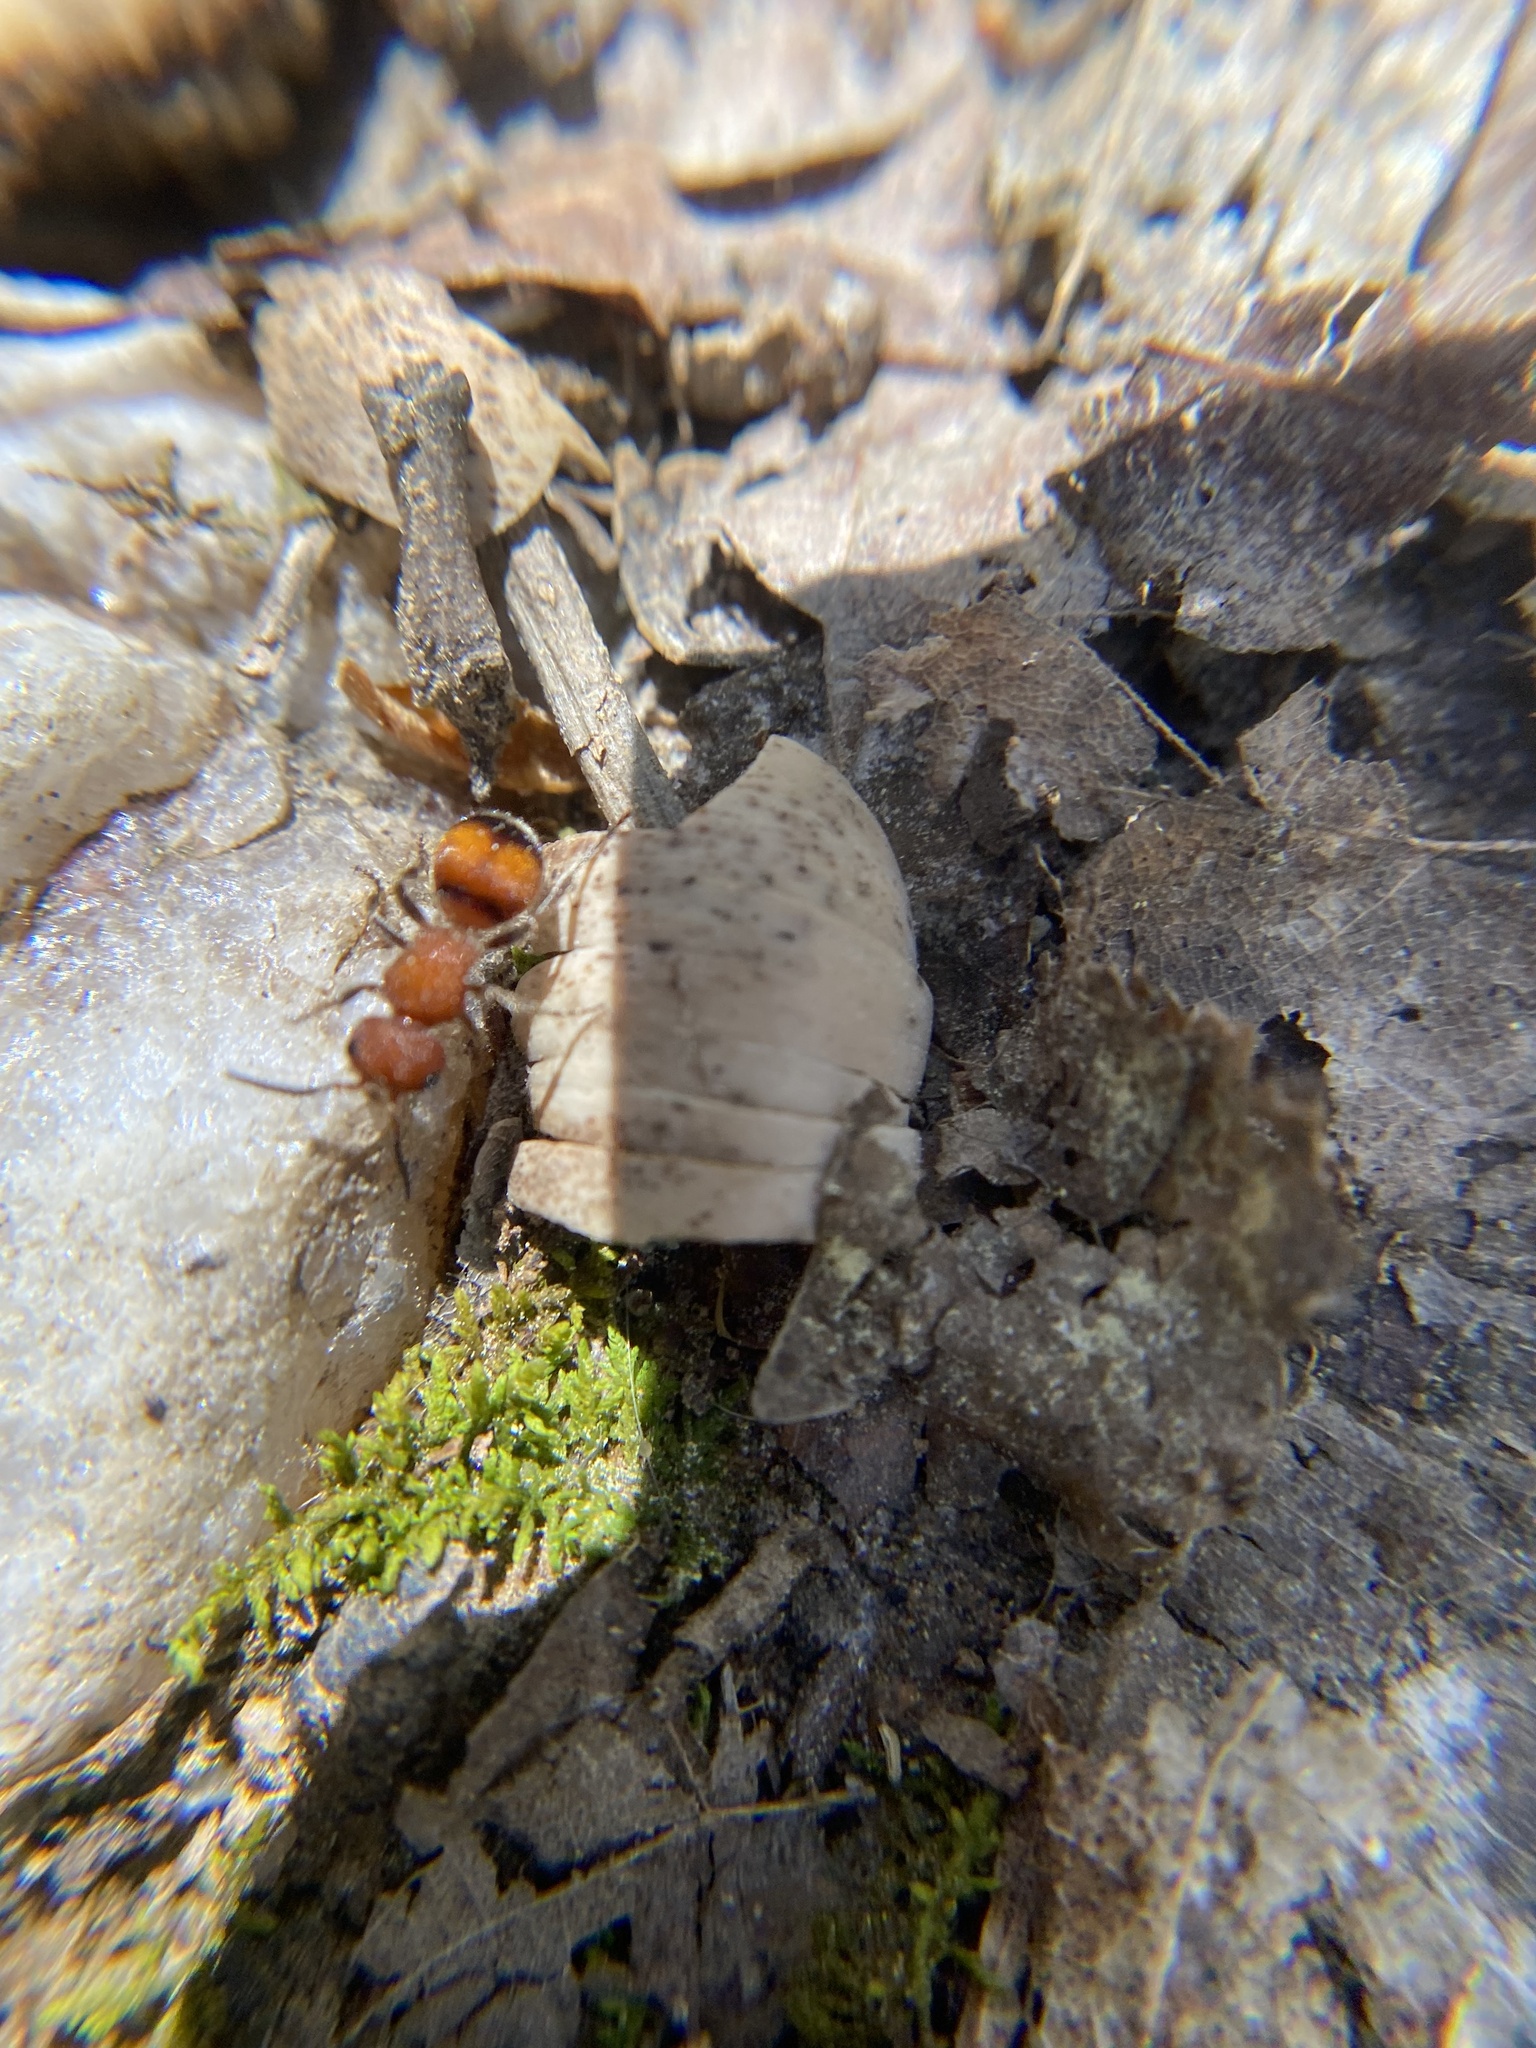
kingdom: Animalia
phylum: Arthropoda
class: Insecta
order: Hymenoptera
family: Mutillidae
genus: Pseudomethoca
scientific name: Pseudomethoca
